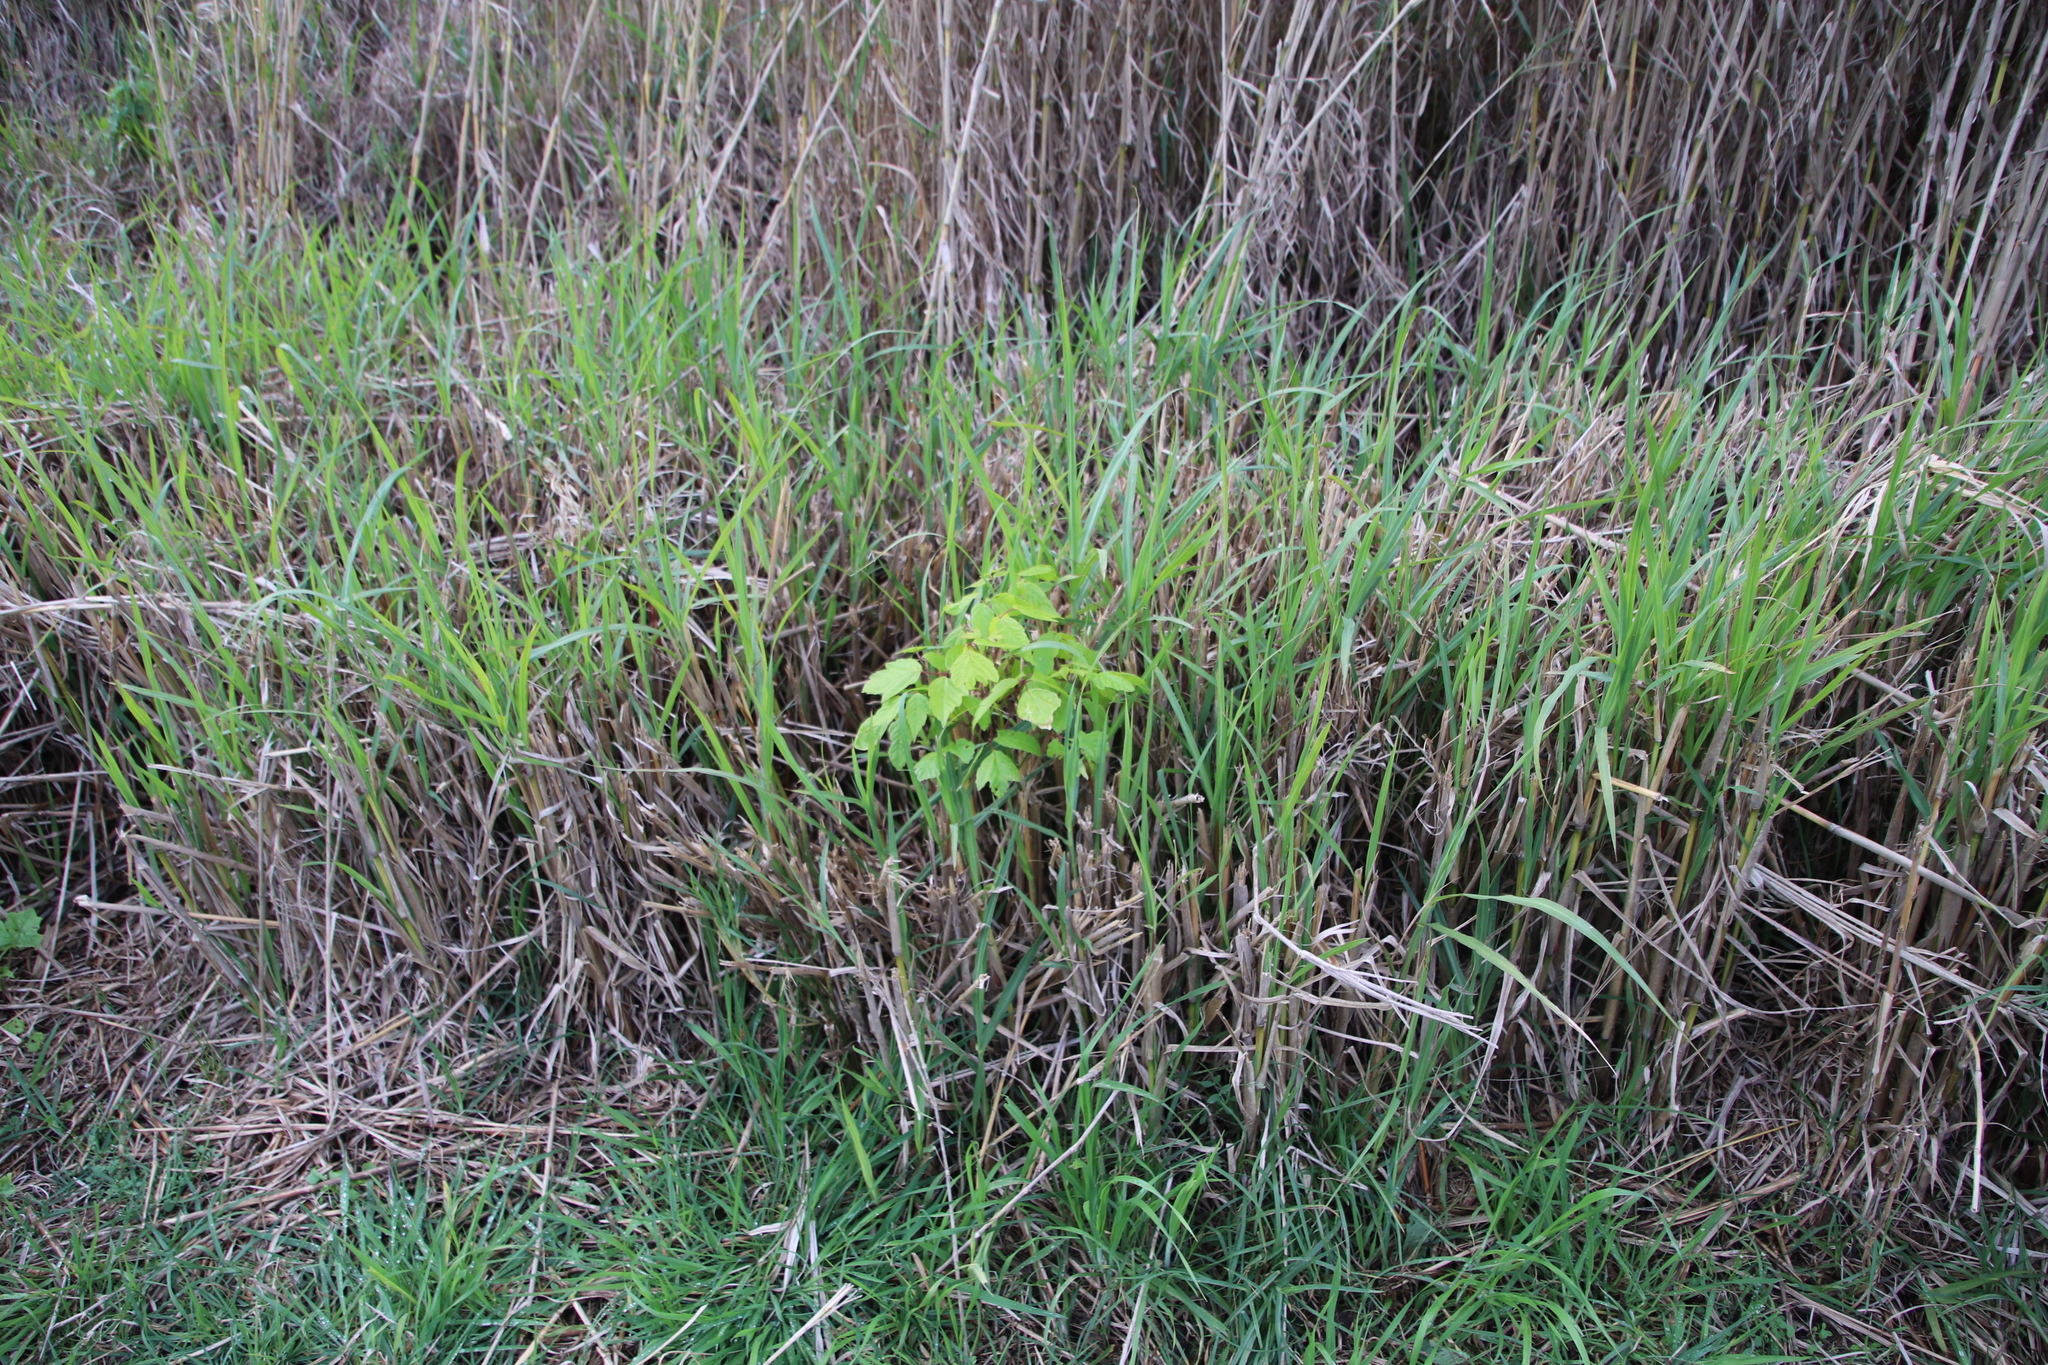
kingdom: Plantae
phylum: Tracheophyta
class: Magnoliopsida
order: Sapindales
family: Sapindaceae
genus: Acer
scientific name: Acer negundo
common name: Ashleaf maple
